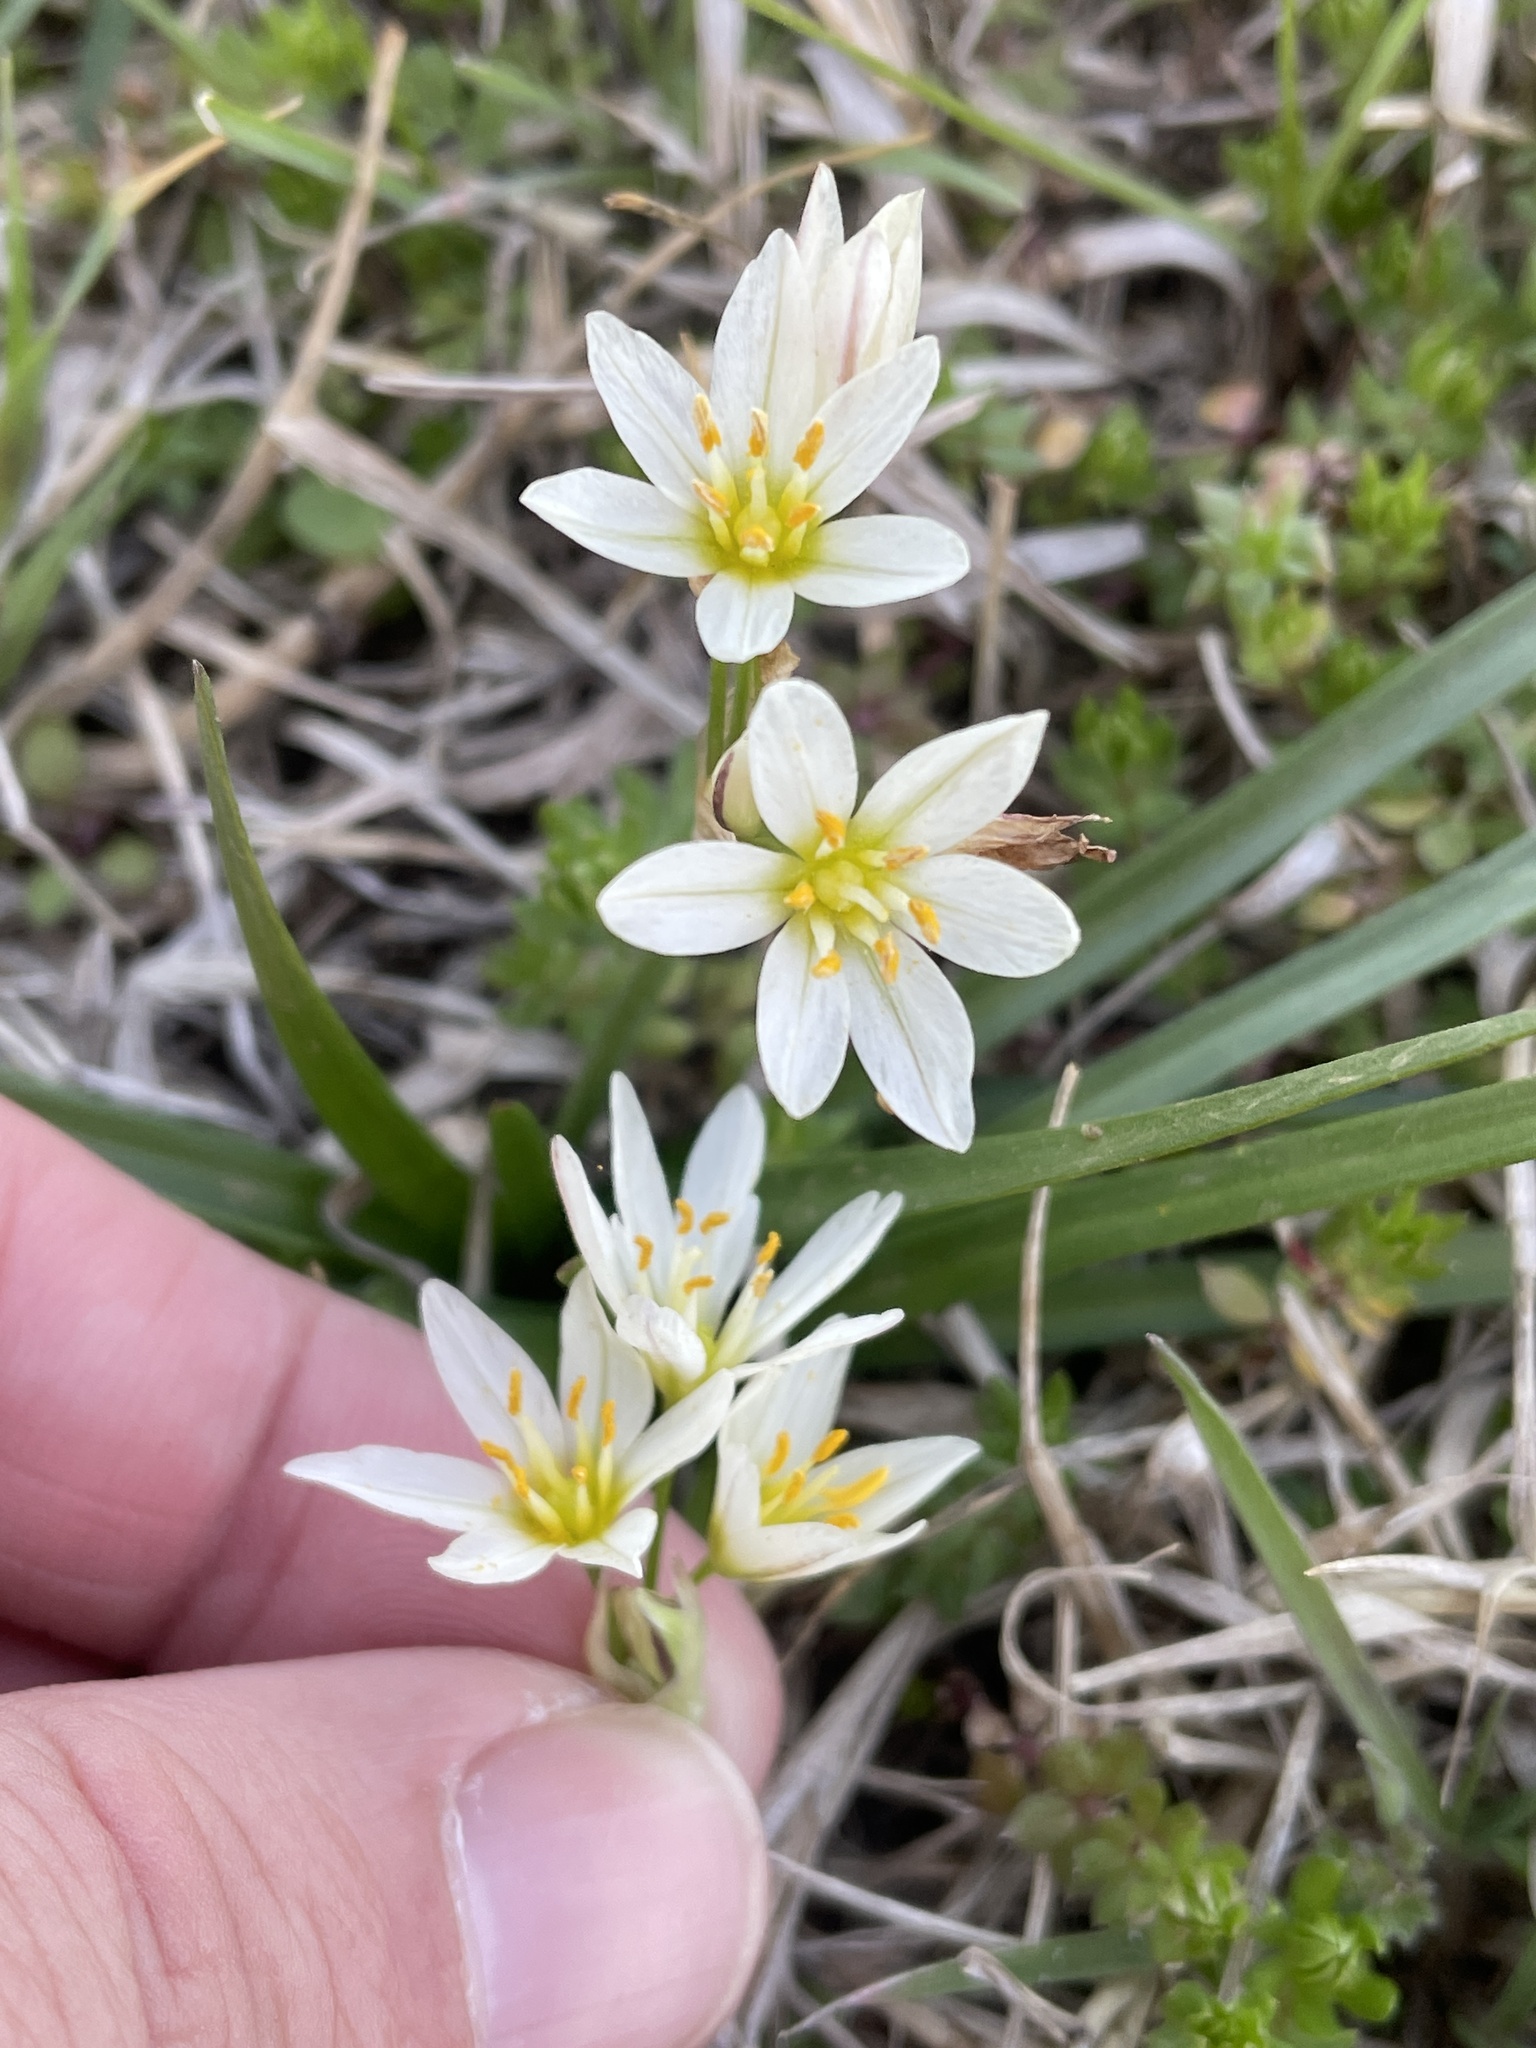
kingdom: Plantae
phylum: Tracheophyta
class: Liliopsida
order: Asparagales
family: Amaryllidaceae
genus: Nothoscordum
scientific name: Nothoscordum bivalve
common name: Crow-poison
